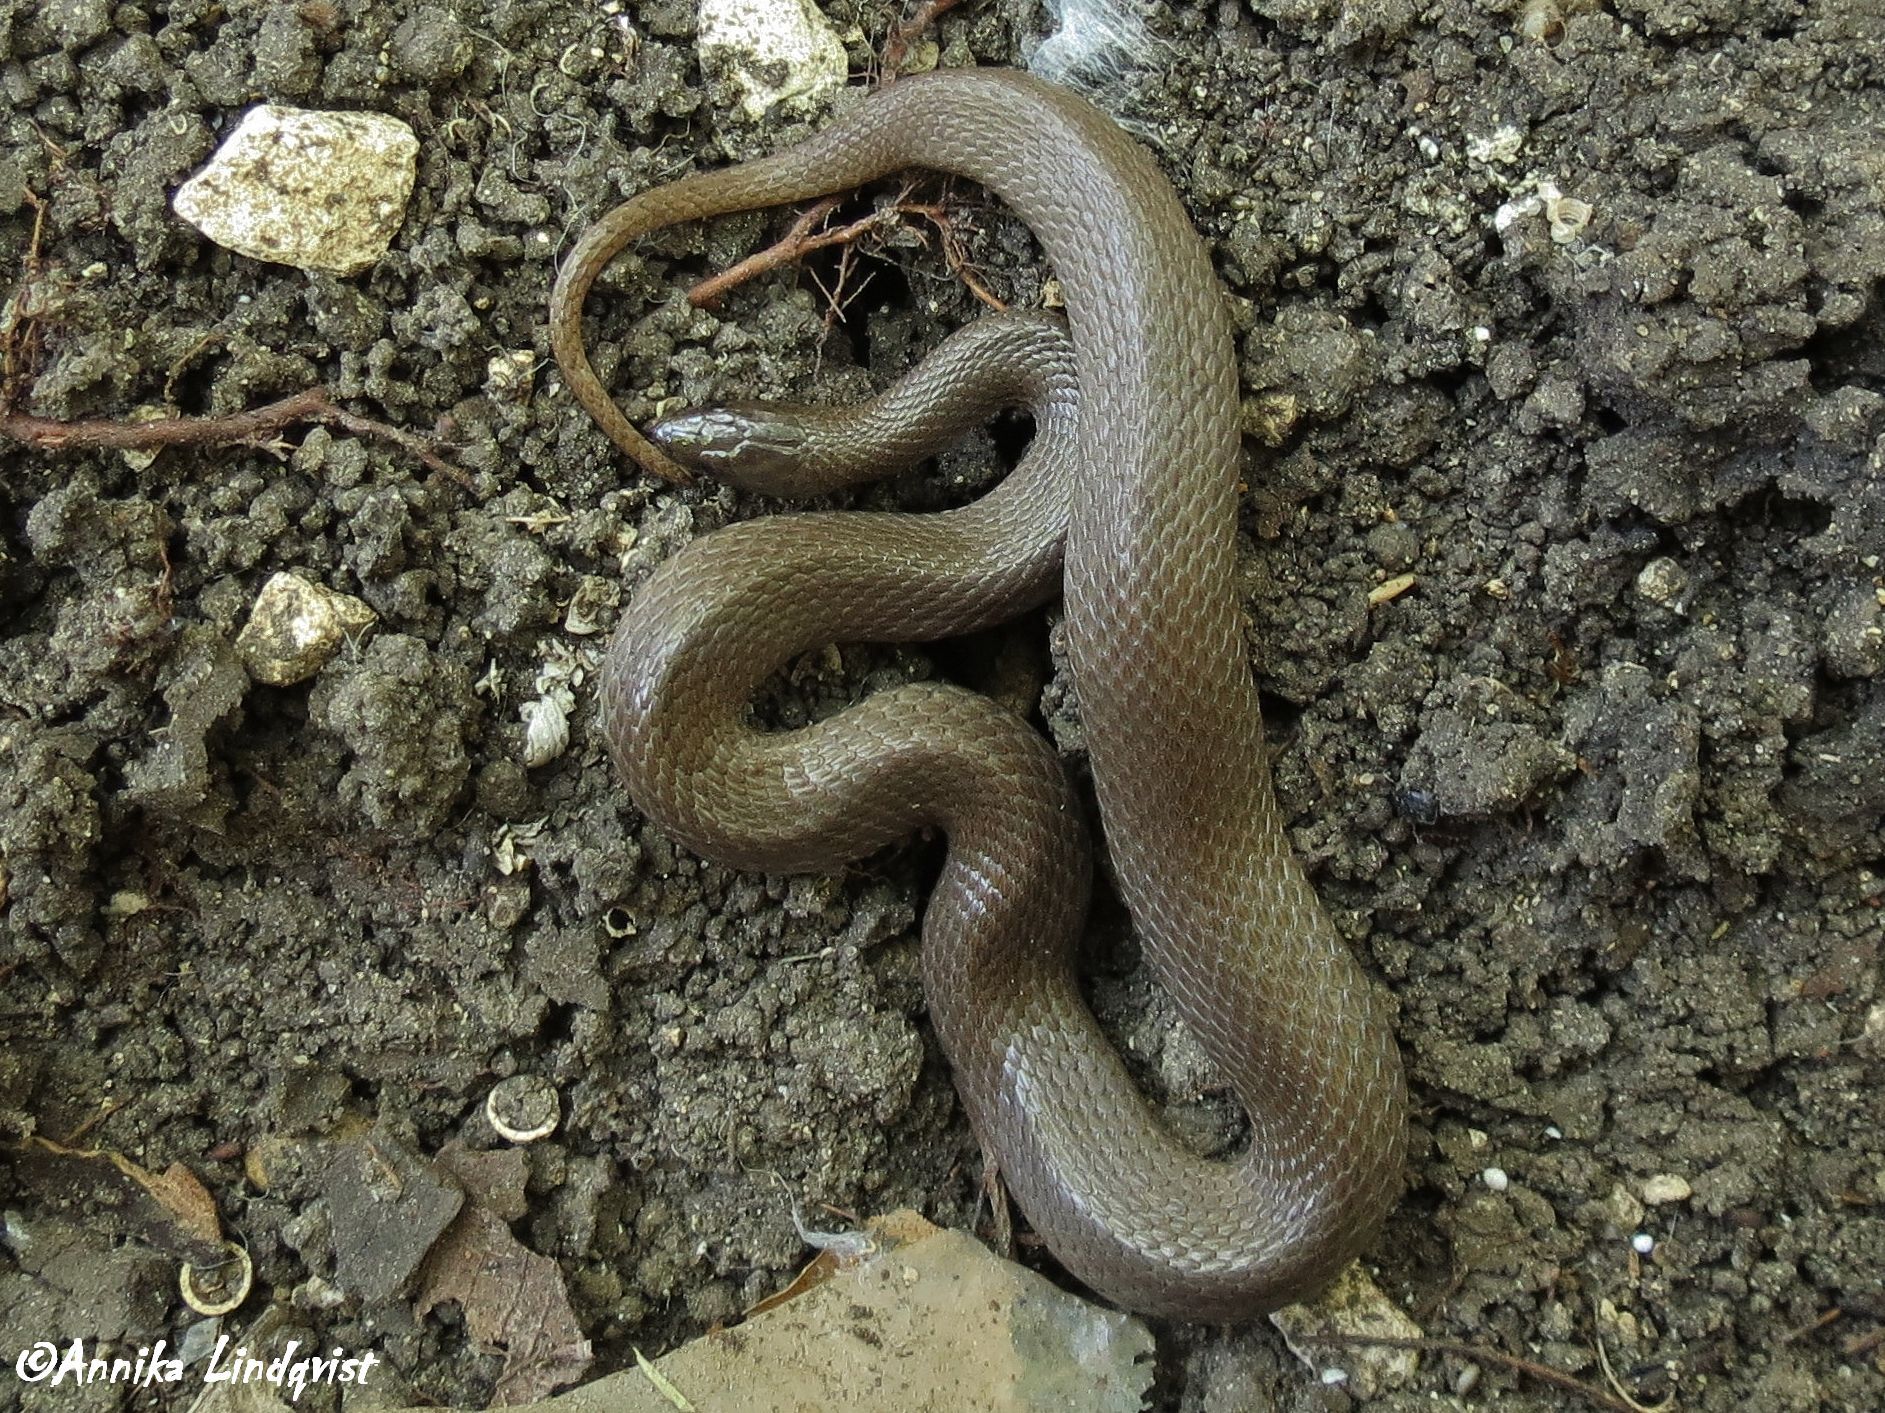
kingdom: Animalia
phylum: Chordata
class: Squamata
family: Colubridae
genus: Haldea
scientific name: Haldea striatula
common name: Rough earth snake
